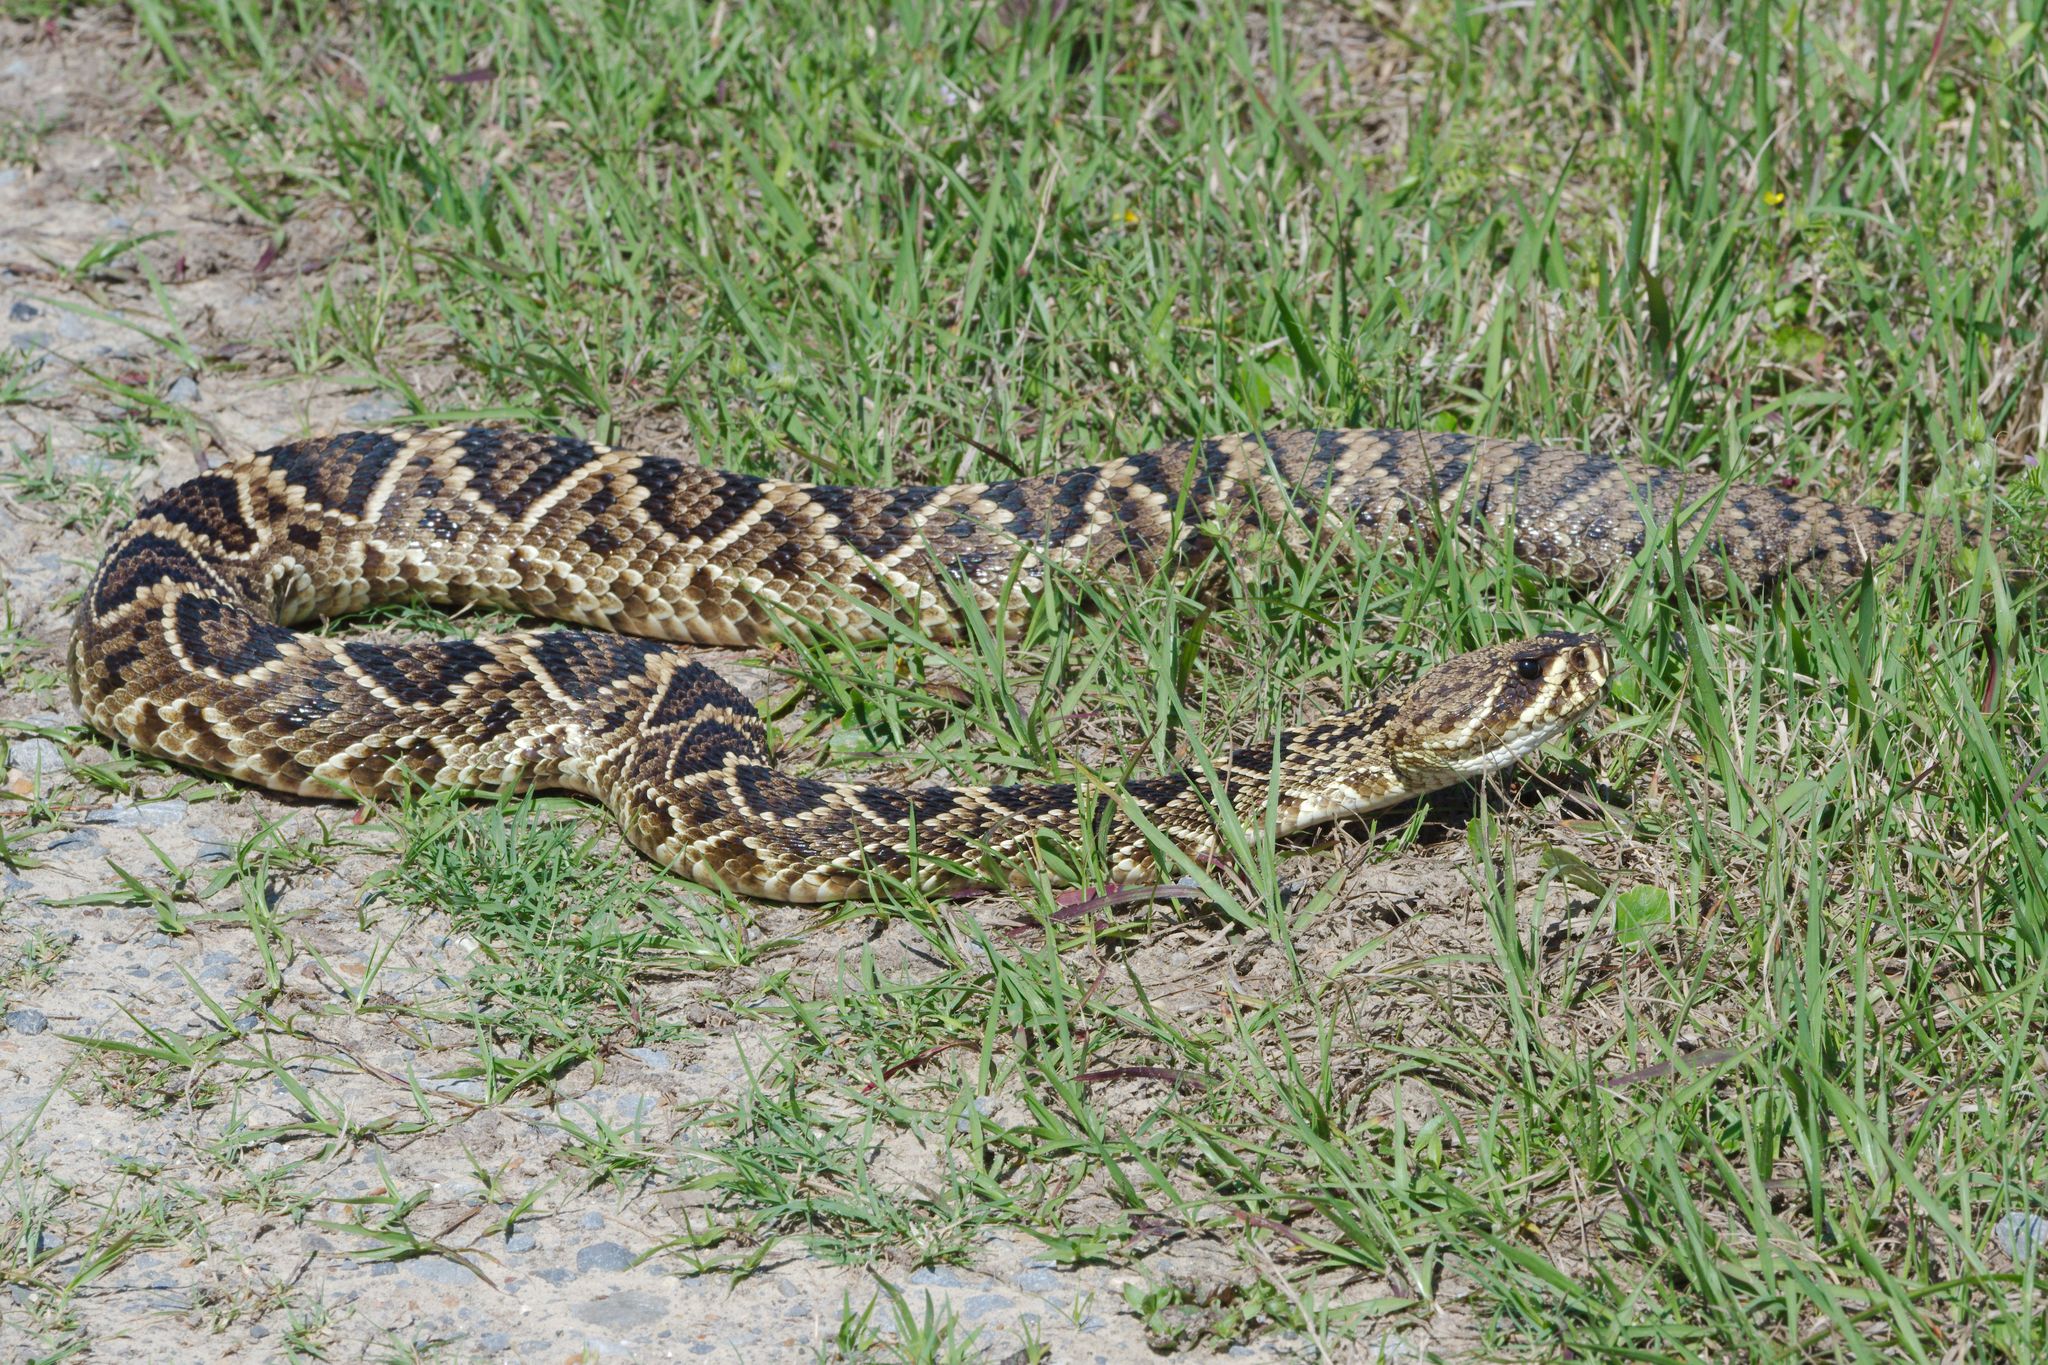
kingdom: Animalia
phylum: Chordata
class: Squamata
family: Viperidae
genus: Crotalus
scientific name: Crotalus adamanteus
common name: Eastern diamondback rattlesnake
